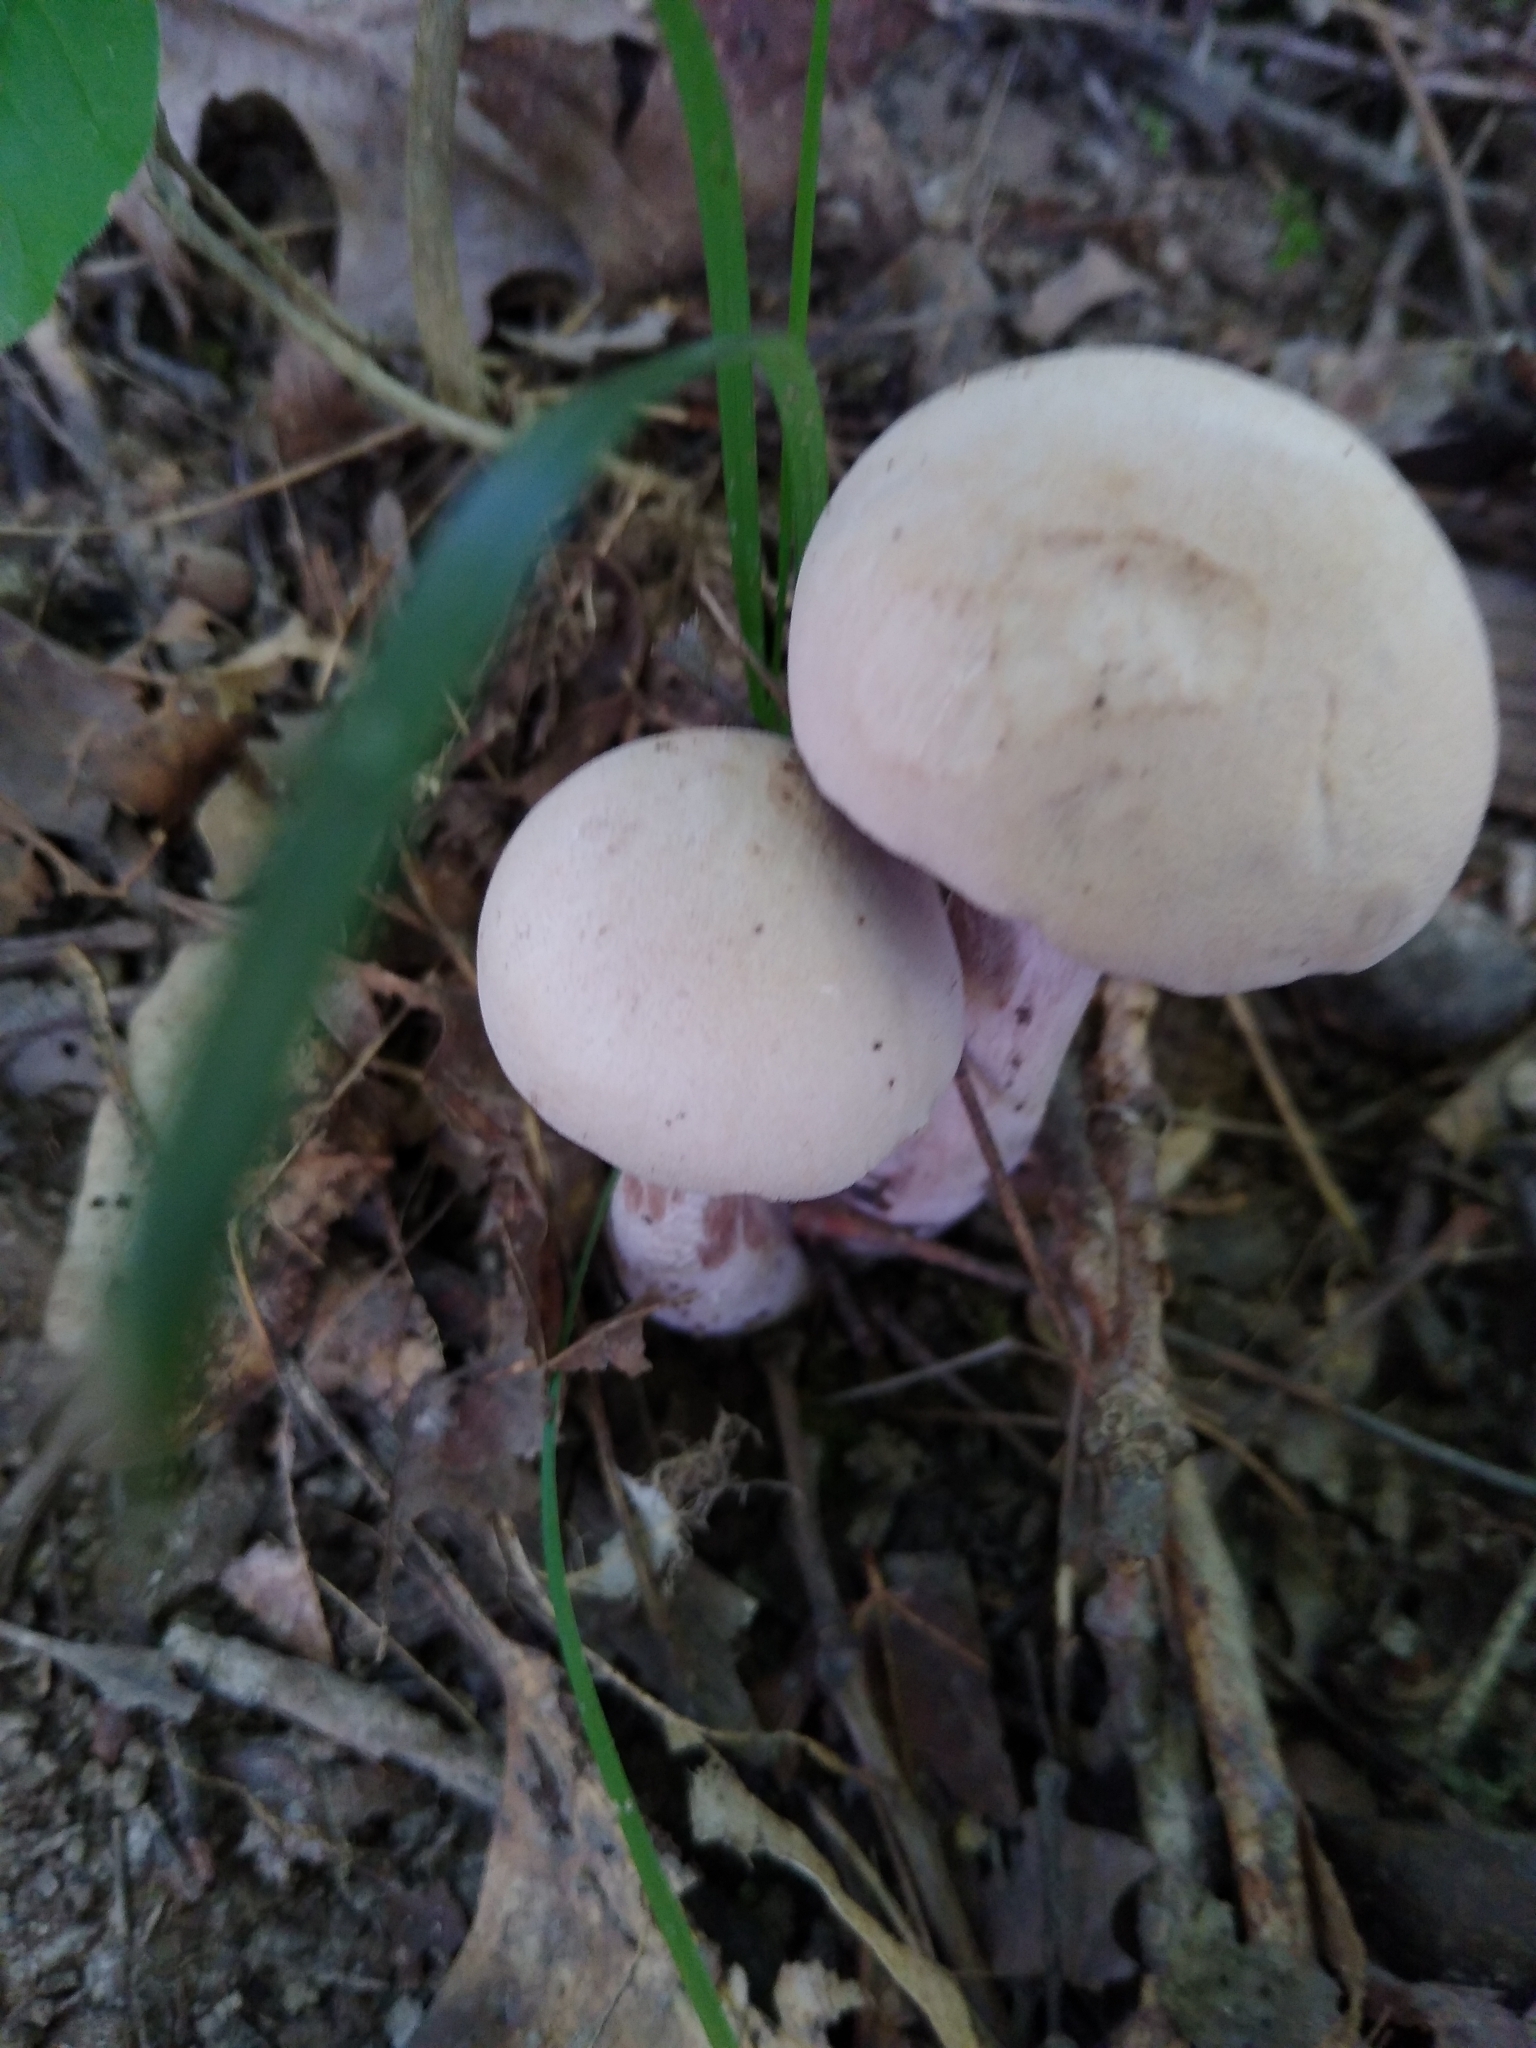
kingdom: Fungi
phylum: Basidiomycota
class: Agaricomycetes
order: Agaricales
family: Hydnangiaceae
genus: Laccaria
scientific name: Laccaria ochropurpurea
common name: Purple laccaria
